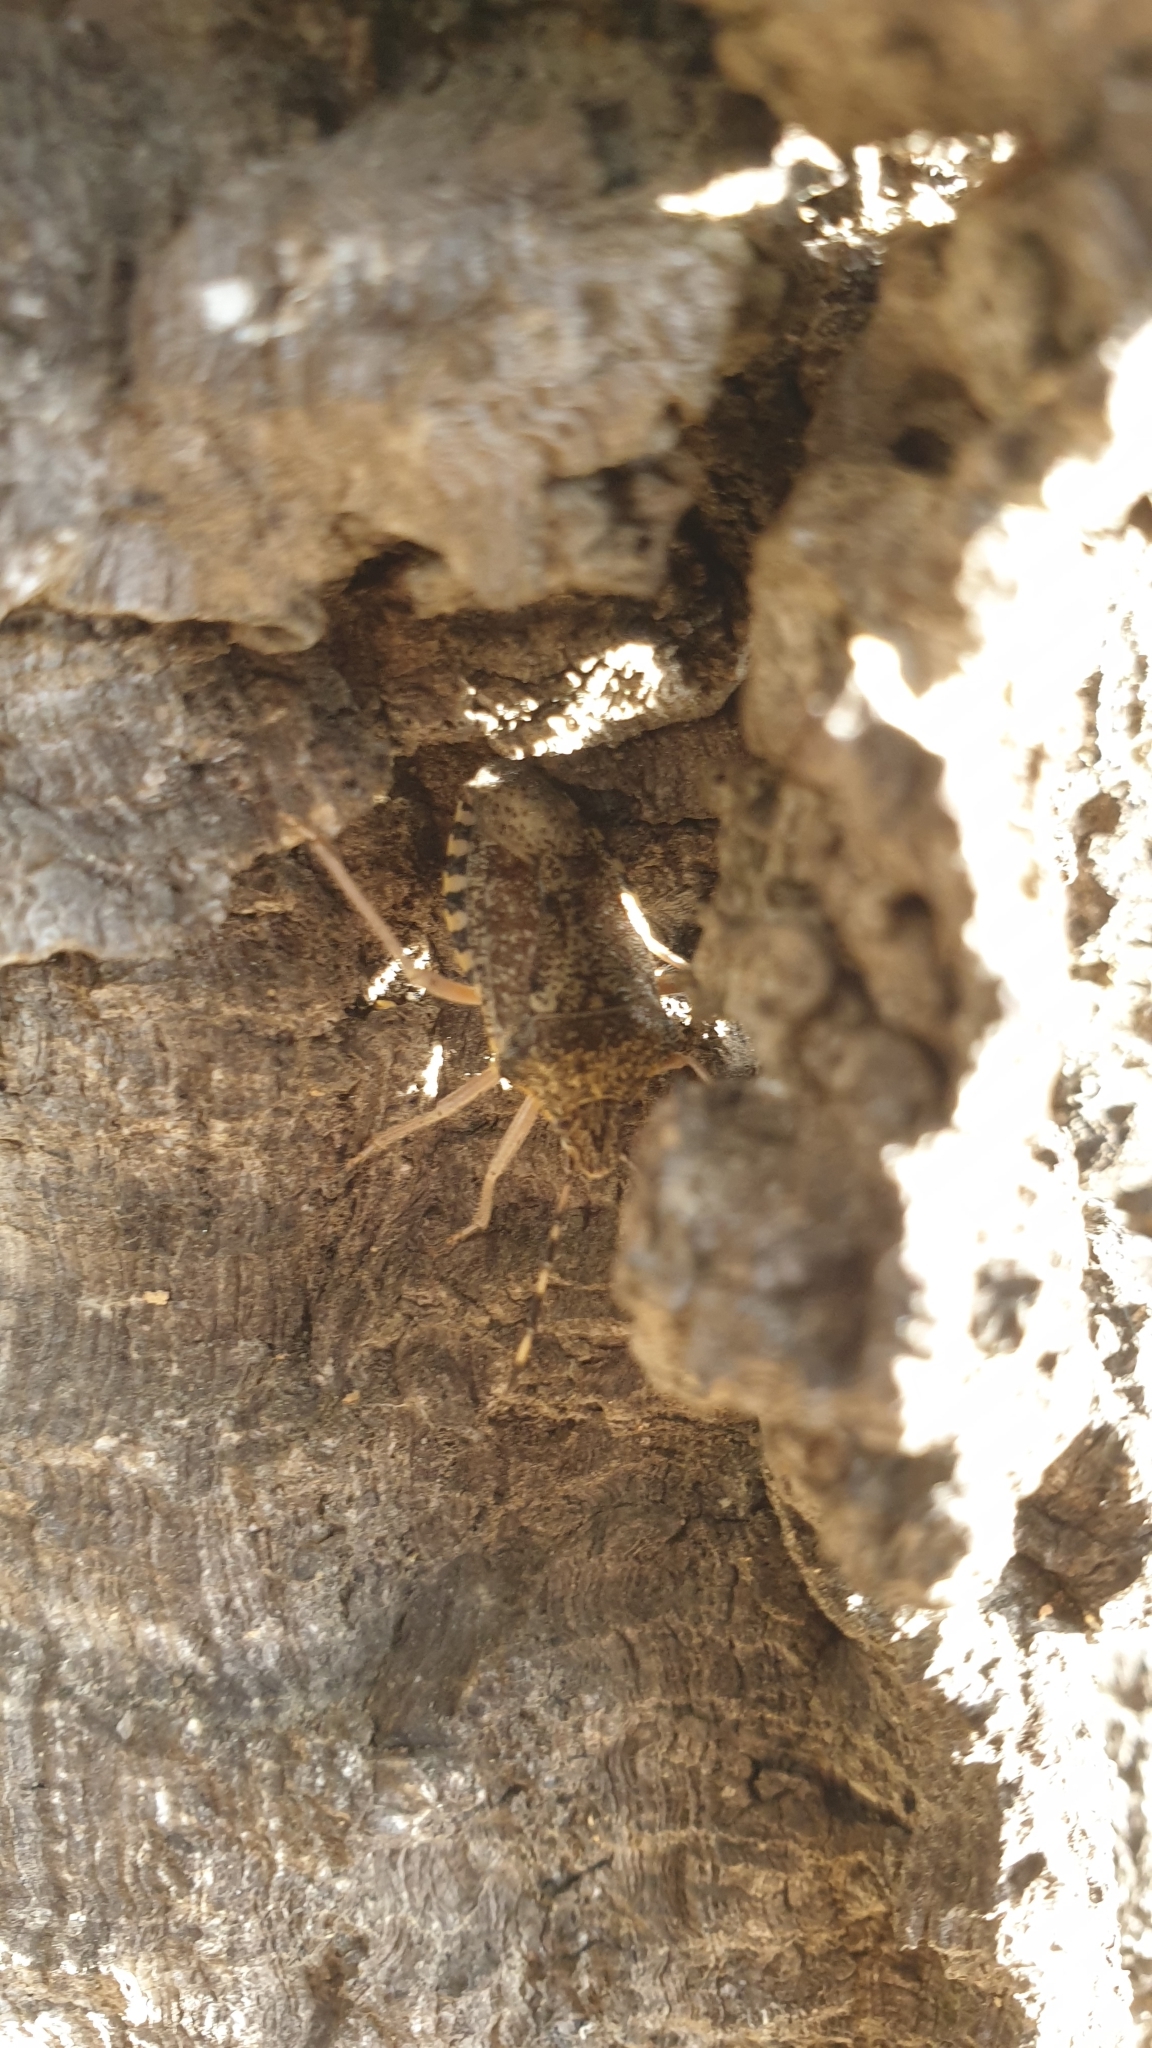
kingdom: Animalia
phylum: Arthropoda
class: Insecta
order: Hemiptera
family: Pentatomidae
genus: Rhaphigaster
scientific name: Rhaphigaster nebulosa
